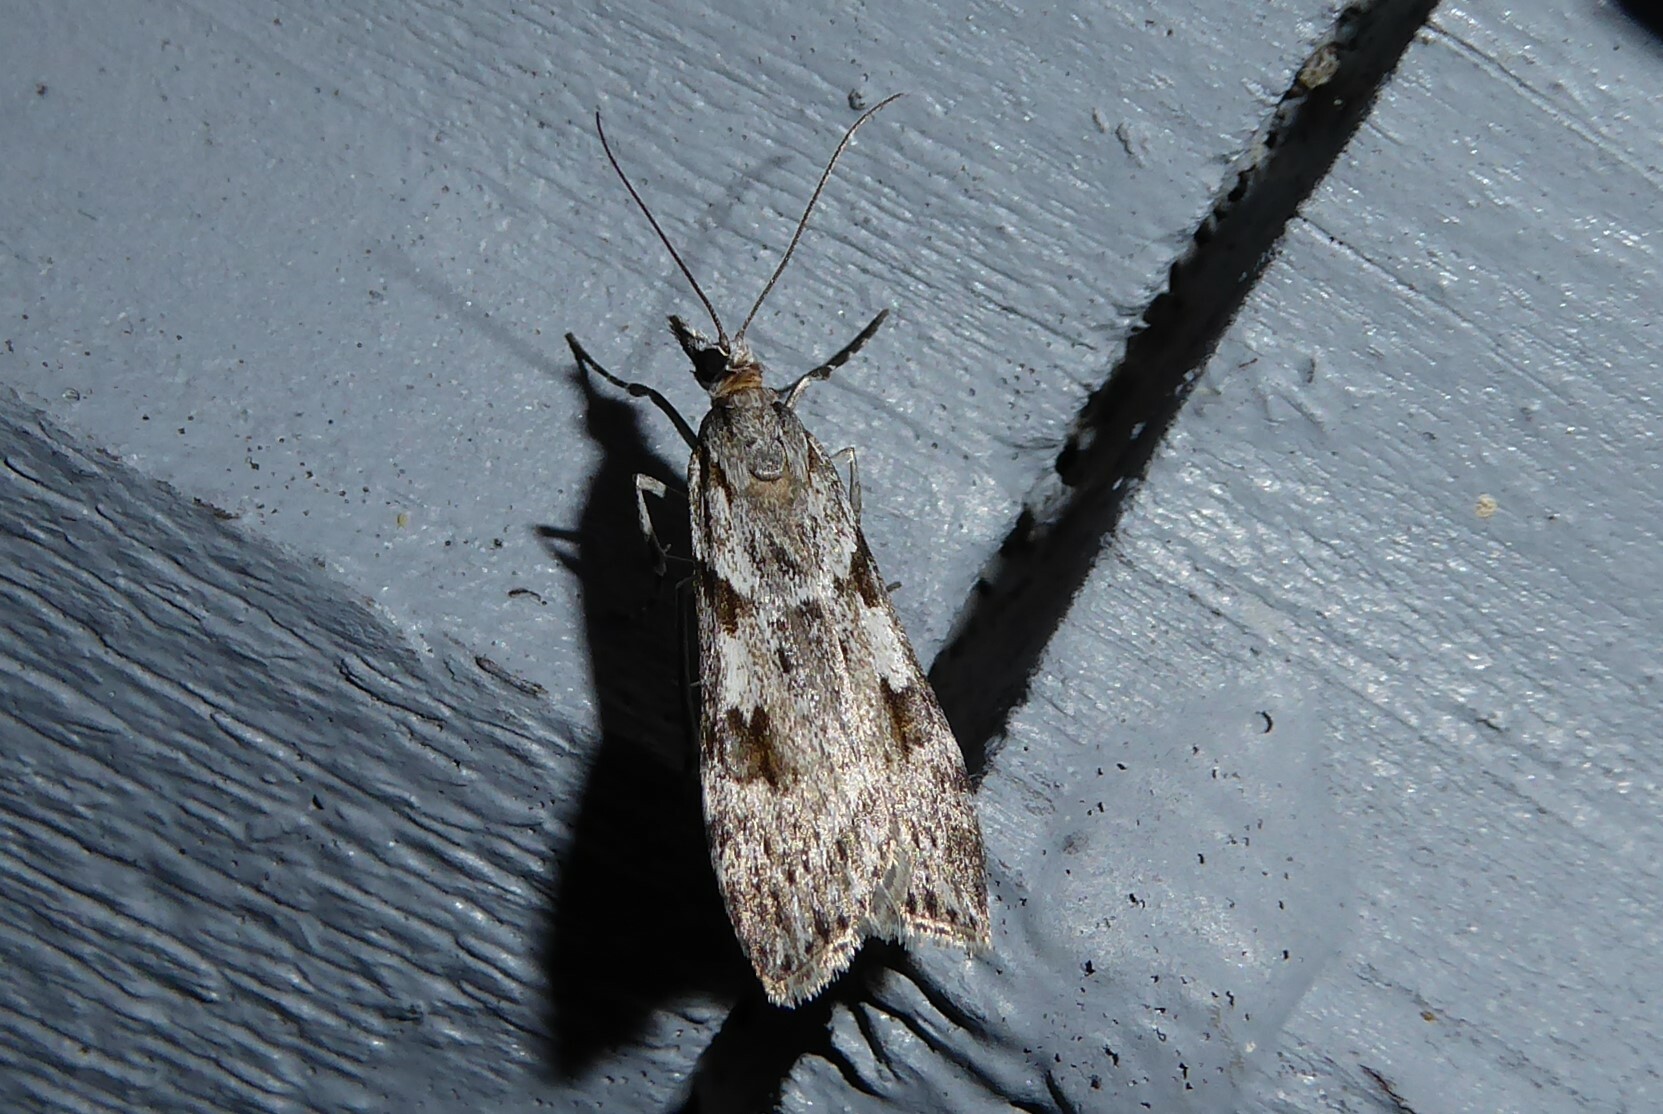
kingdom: Animalia
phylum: Arthropoda
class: Insecta
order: Lepidoptera
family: Crambidae
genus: Scoparia
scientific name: Scoparia halopis
